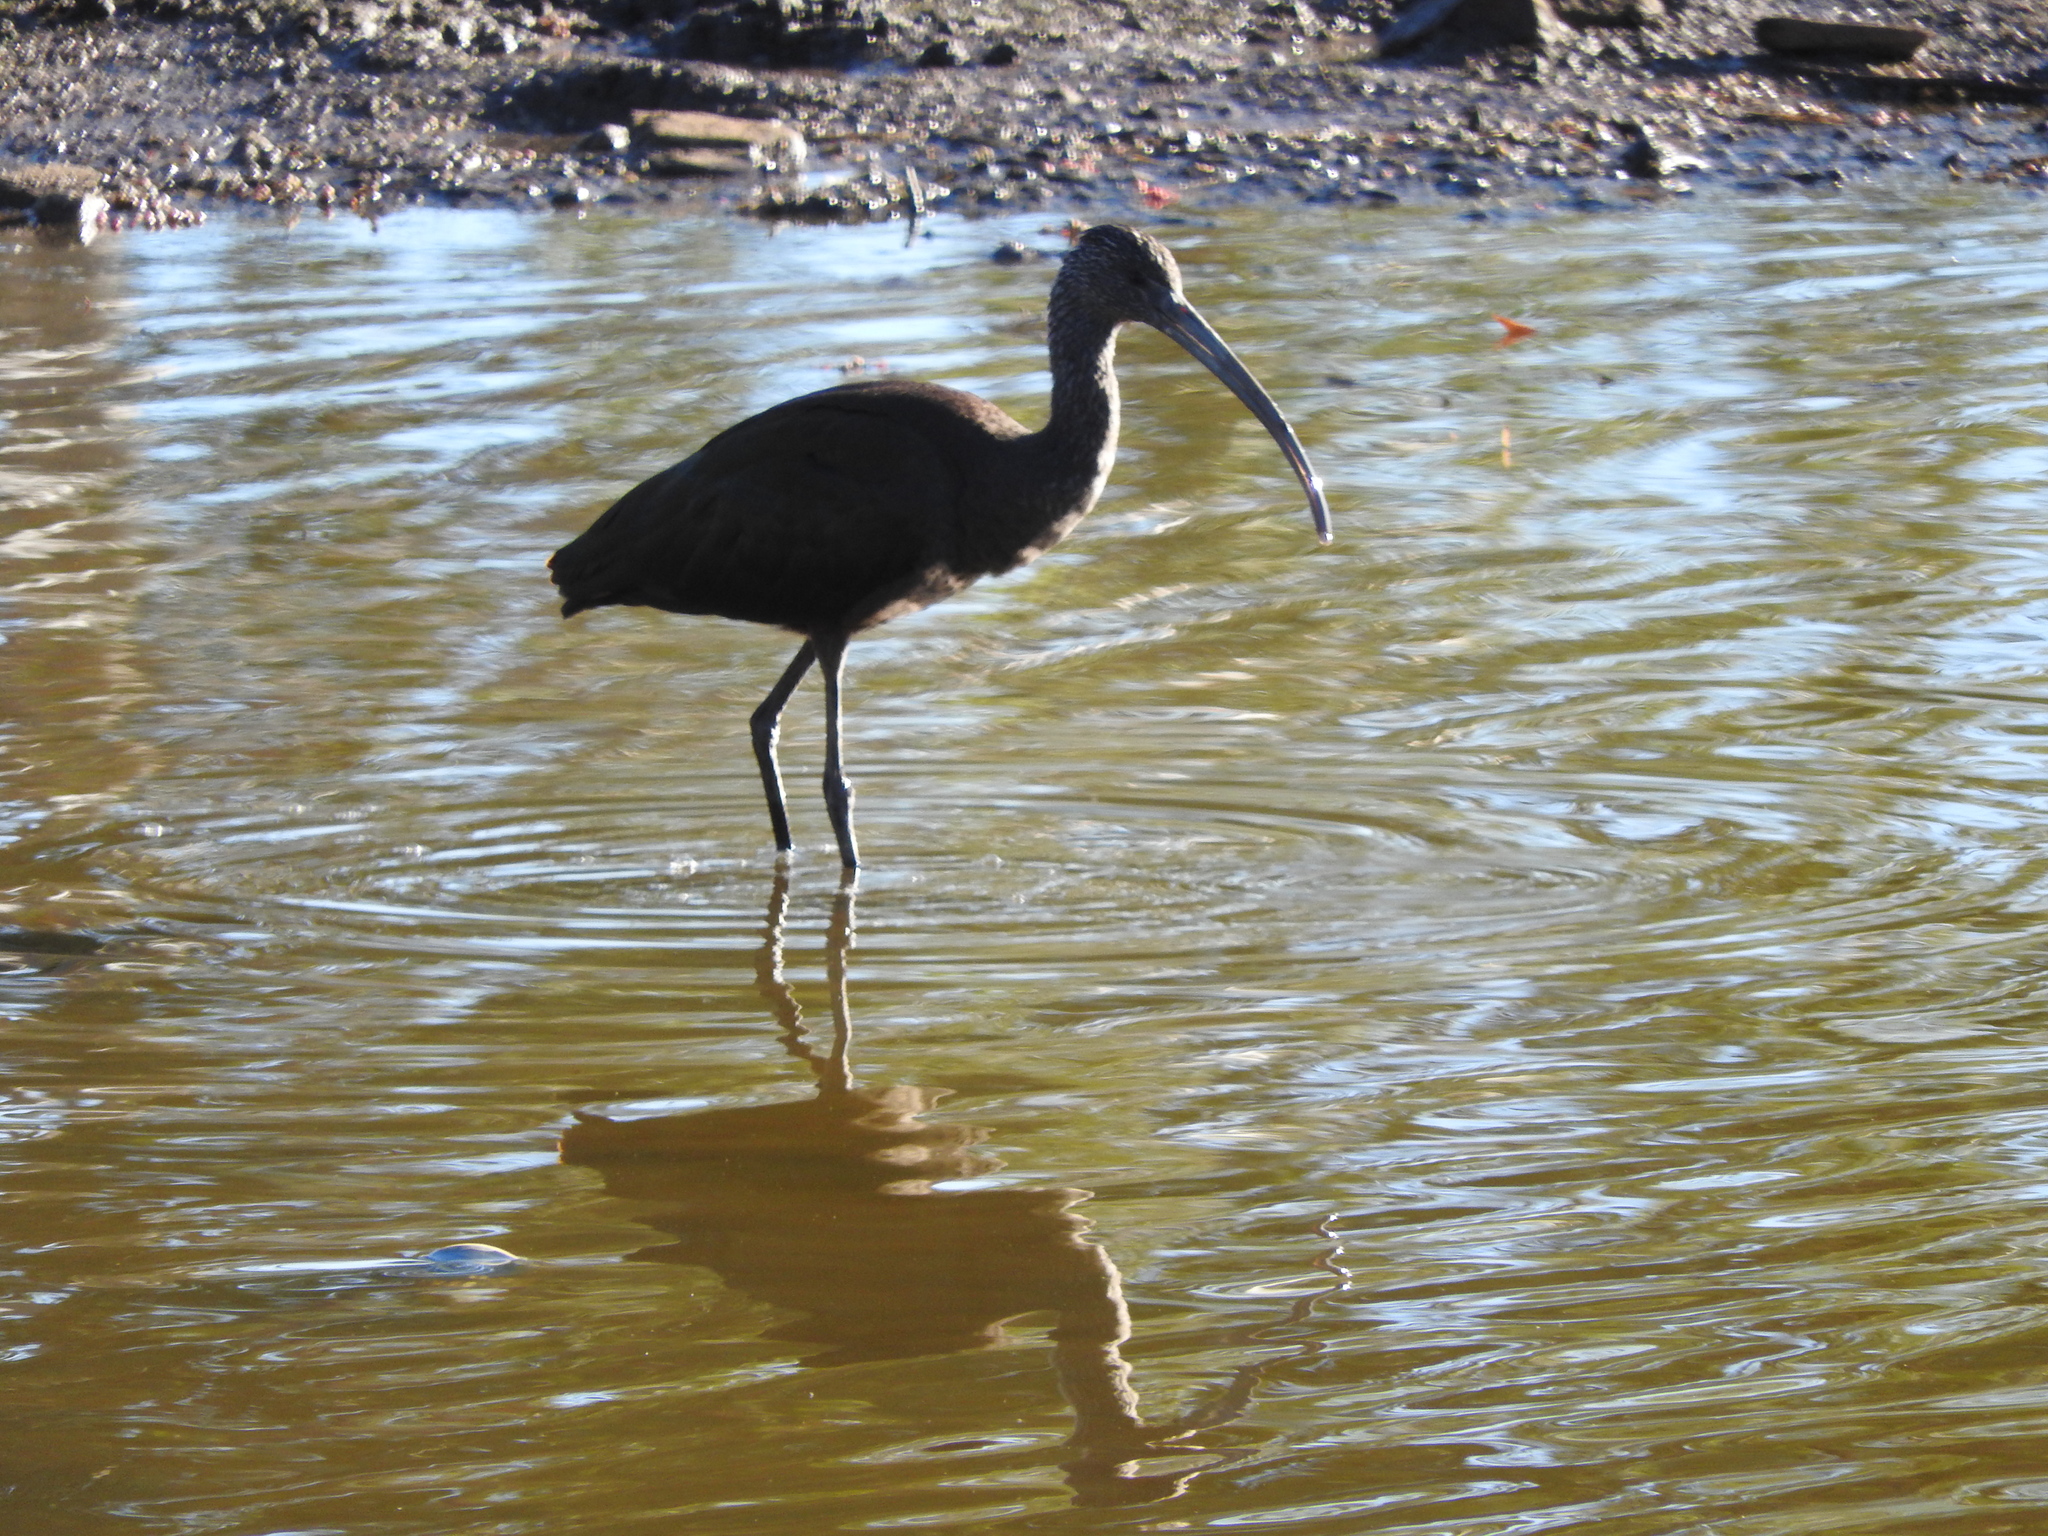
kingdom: Animalia
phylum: Chordata
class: Aves
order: Pelecaniformes
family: Threskiornithidae
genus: Plegadis
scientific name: Plegadis chihi
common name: White-faced ibis
